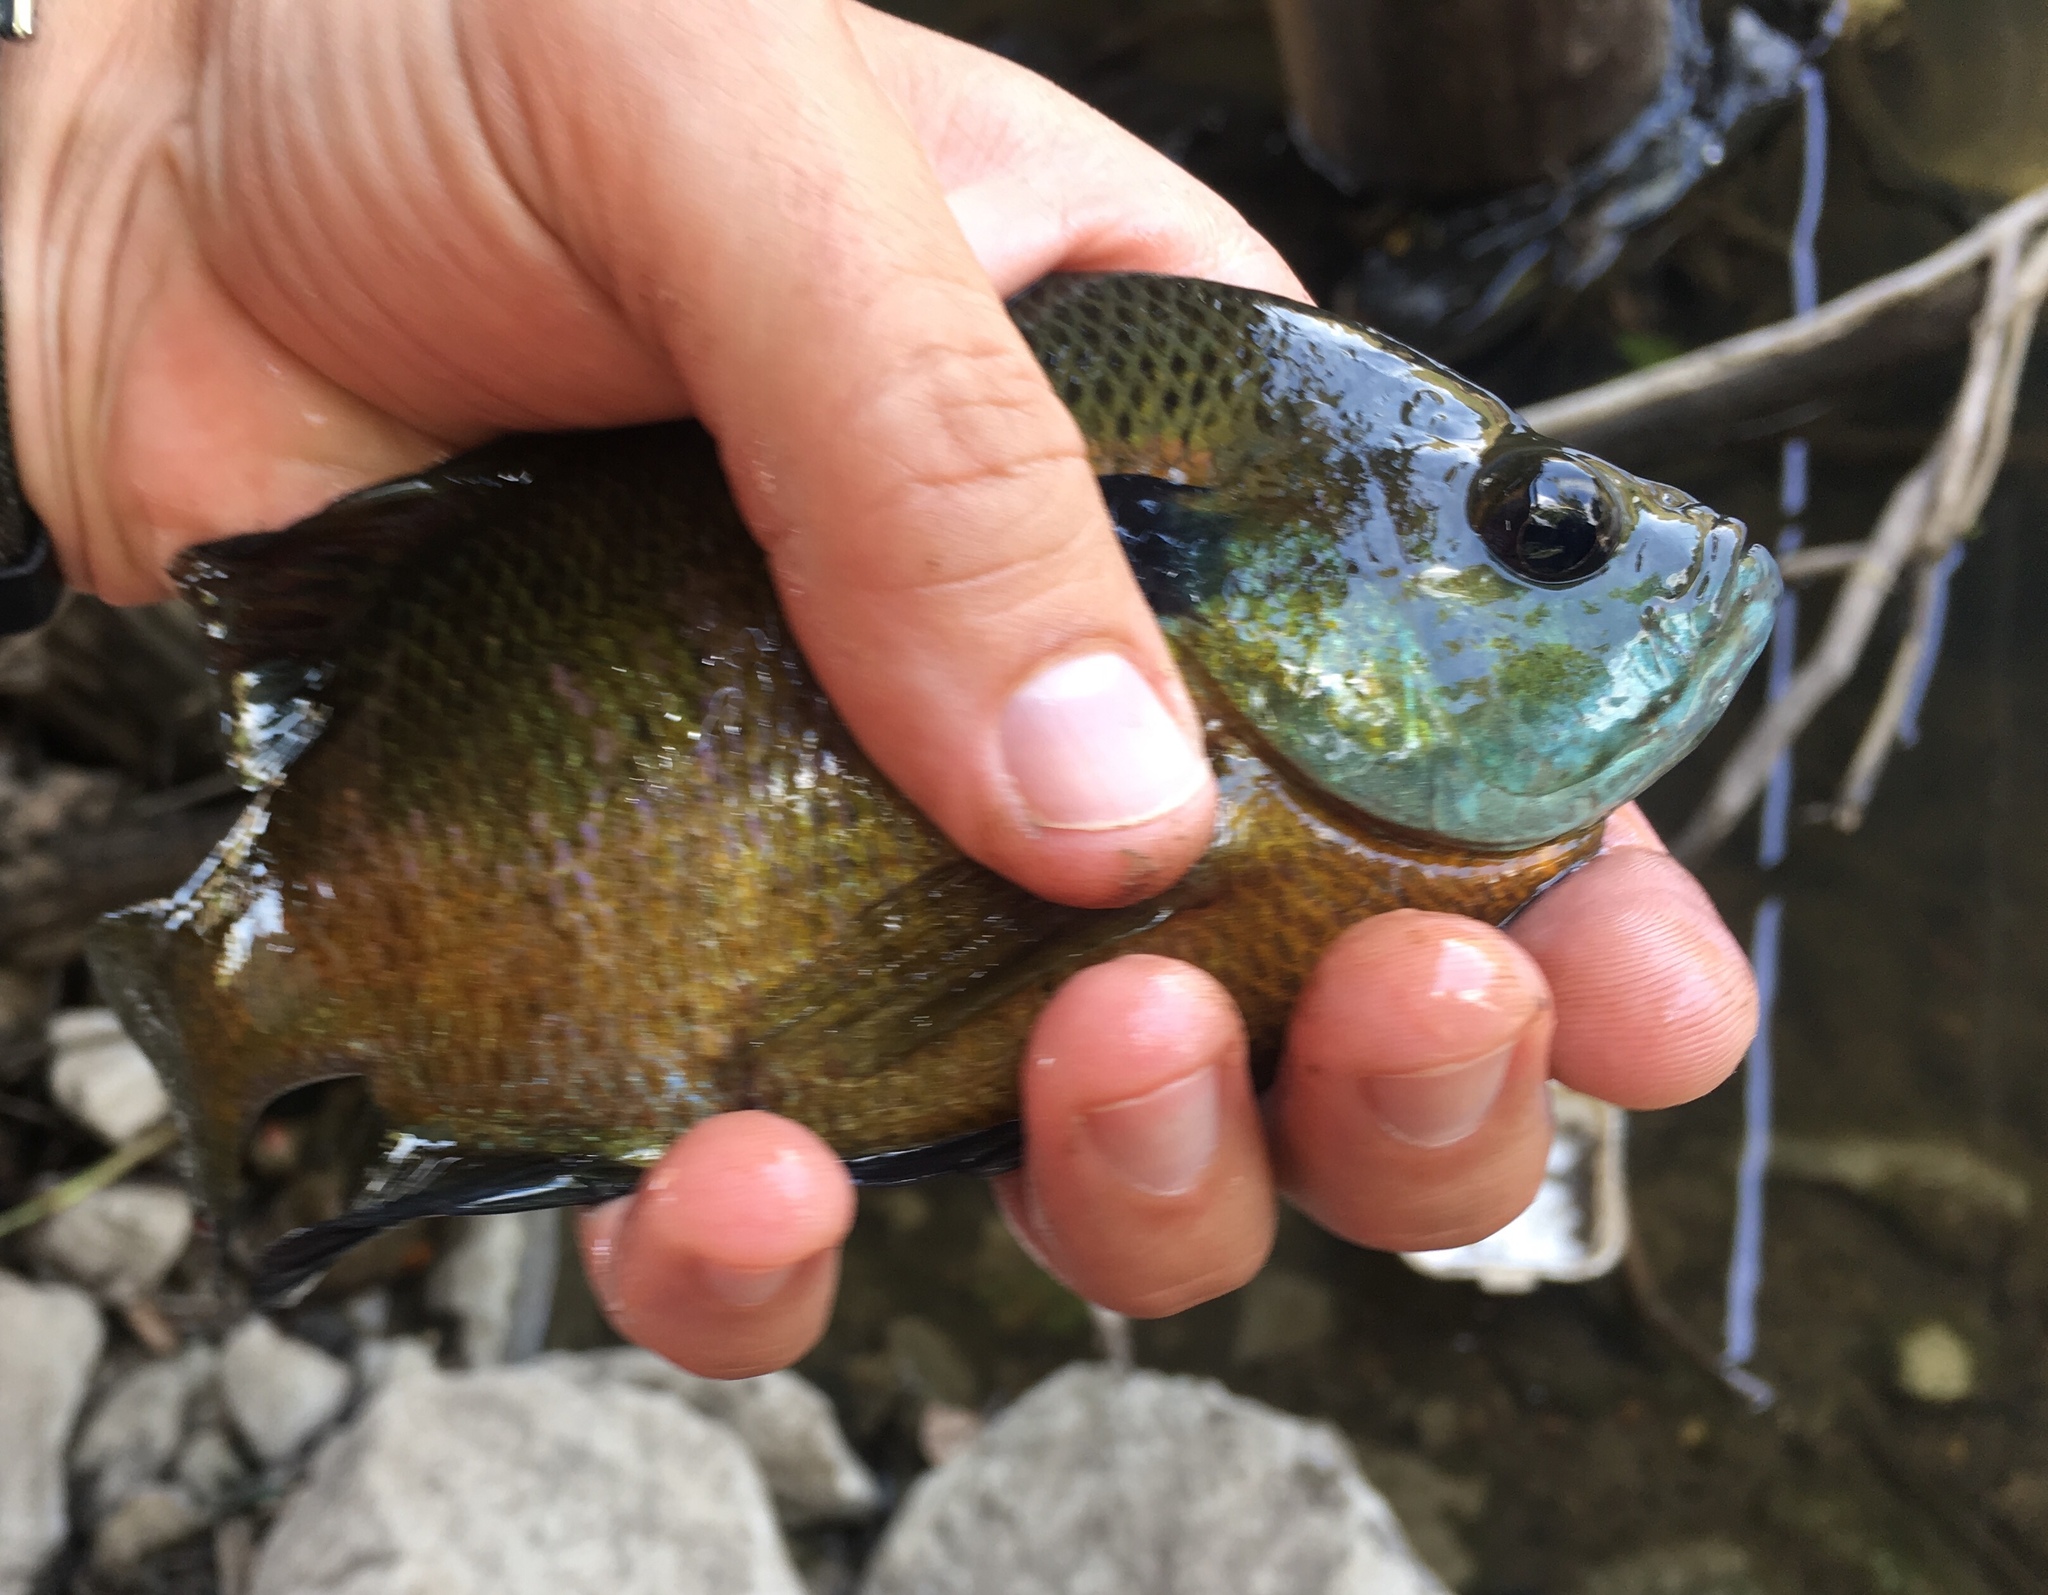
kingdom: Animalia
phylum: Chordata
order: Perciformes
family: Centrarchidae
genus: Lepomis
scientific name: Lepomis macrochirus
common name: Bluegill
